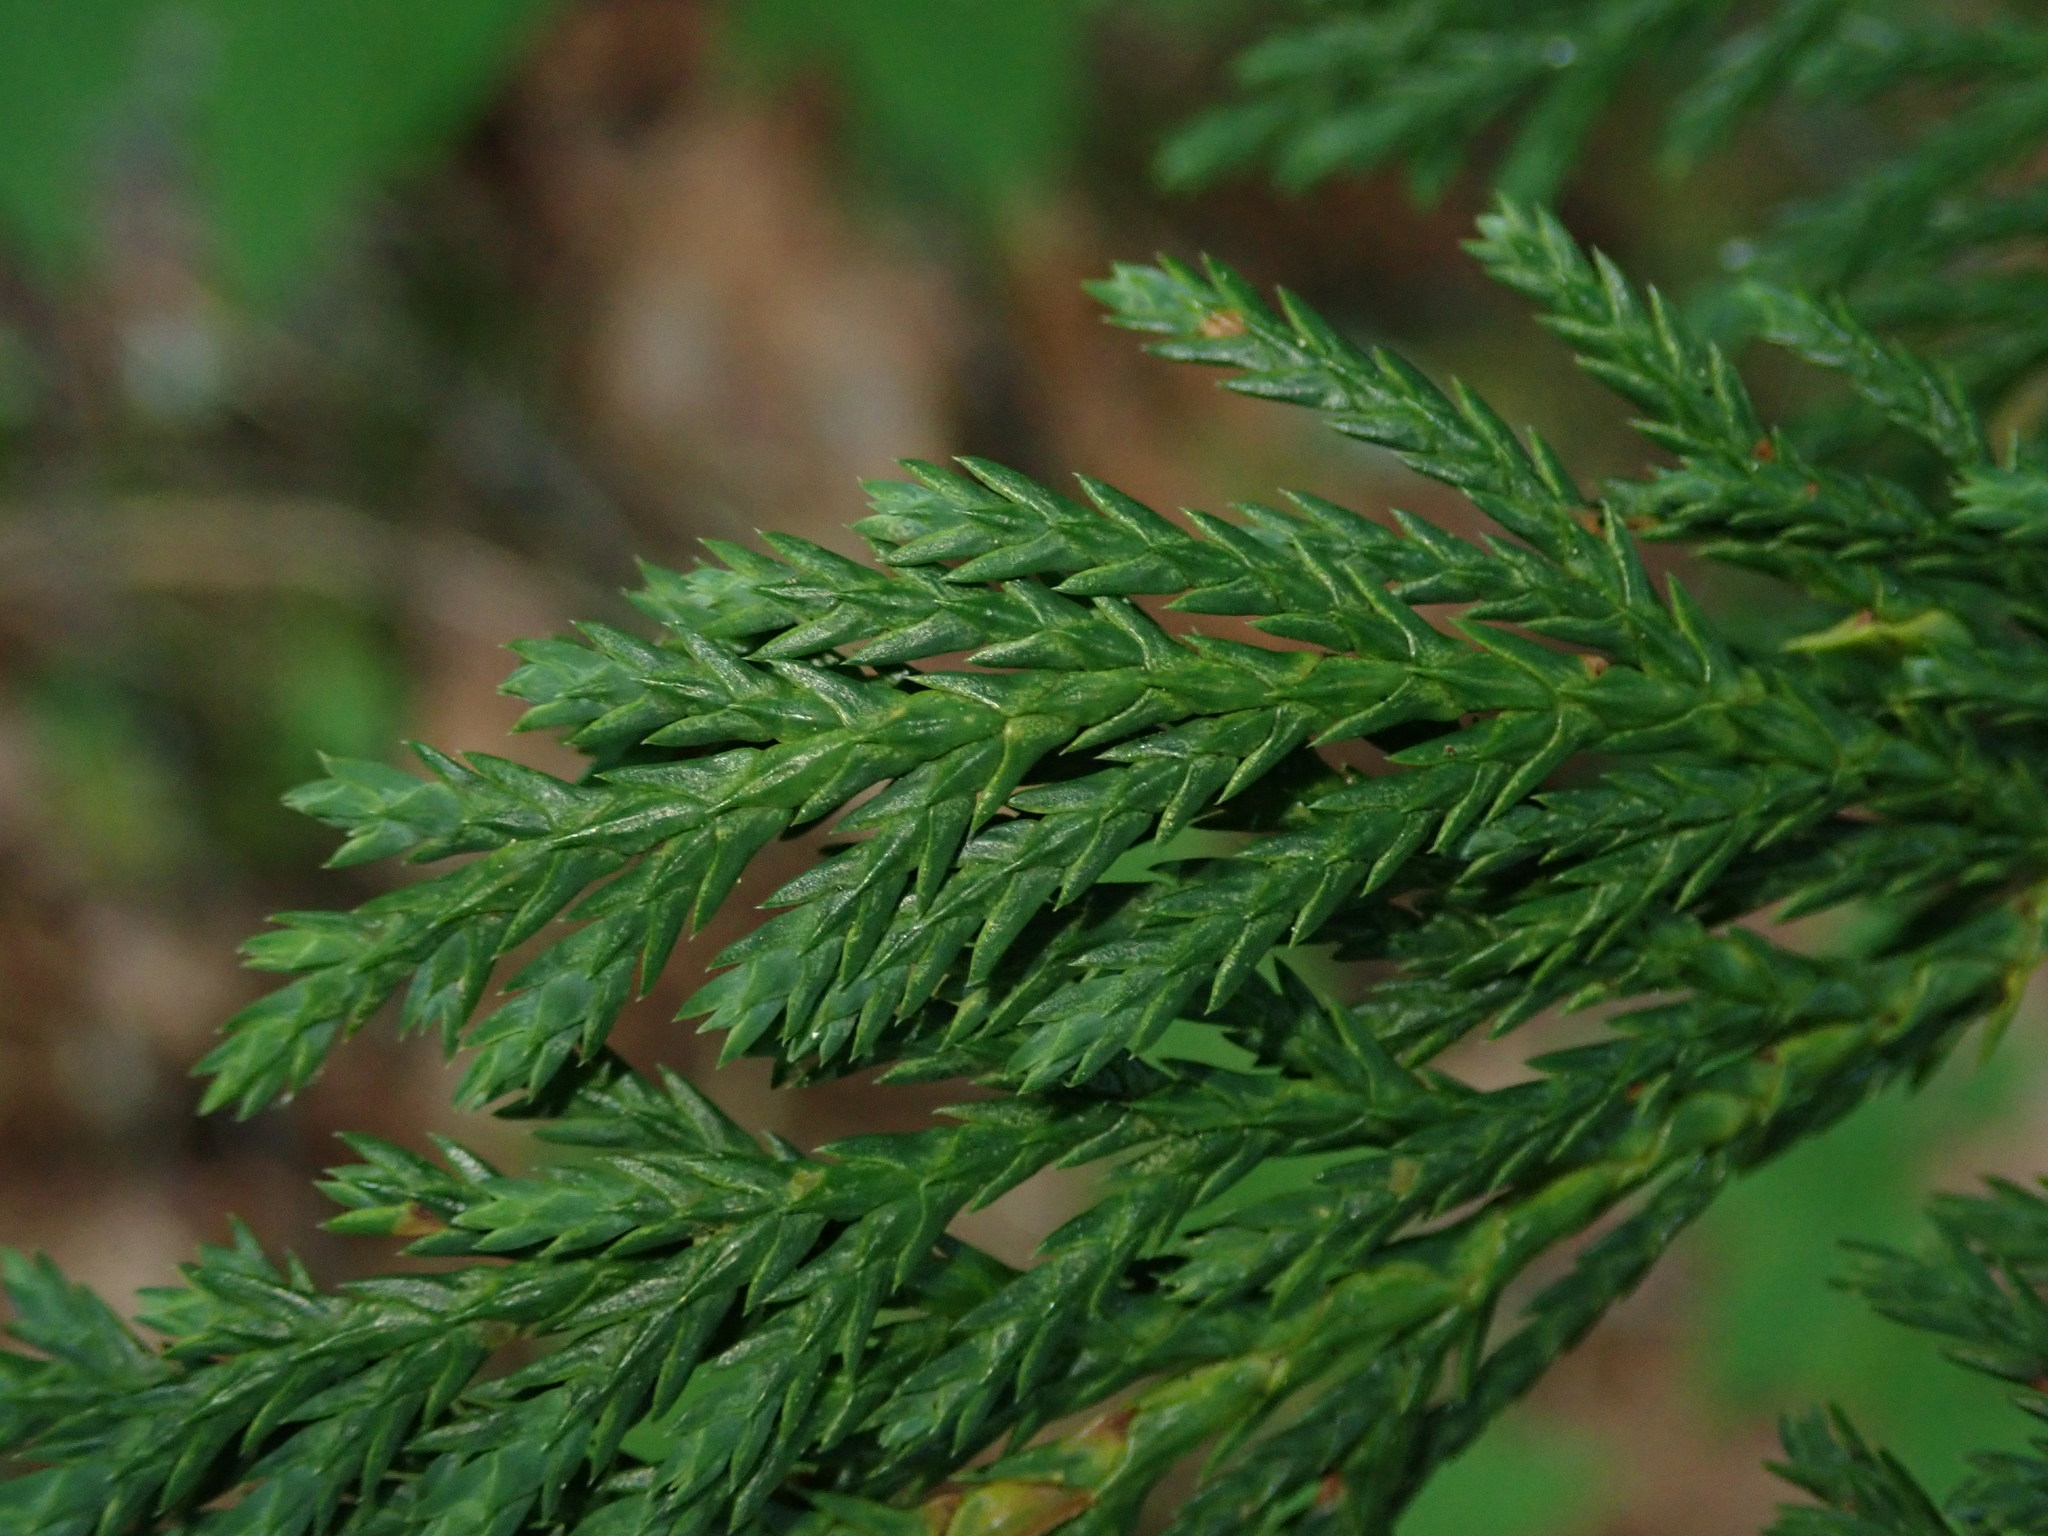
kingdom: Plantae
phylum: Tracheophyta
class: Pinopsida
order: Pinales
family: Cupressaceae
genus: Xanthocyparis
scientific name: Xanthocyparis nootkatensis
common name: Nootka cypress
